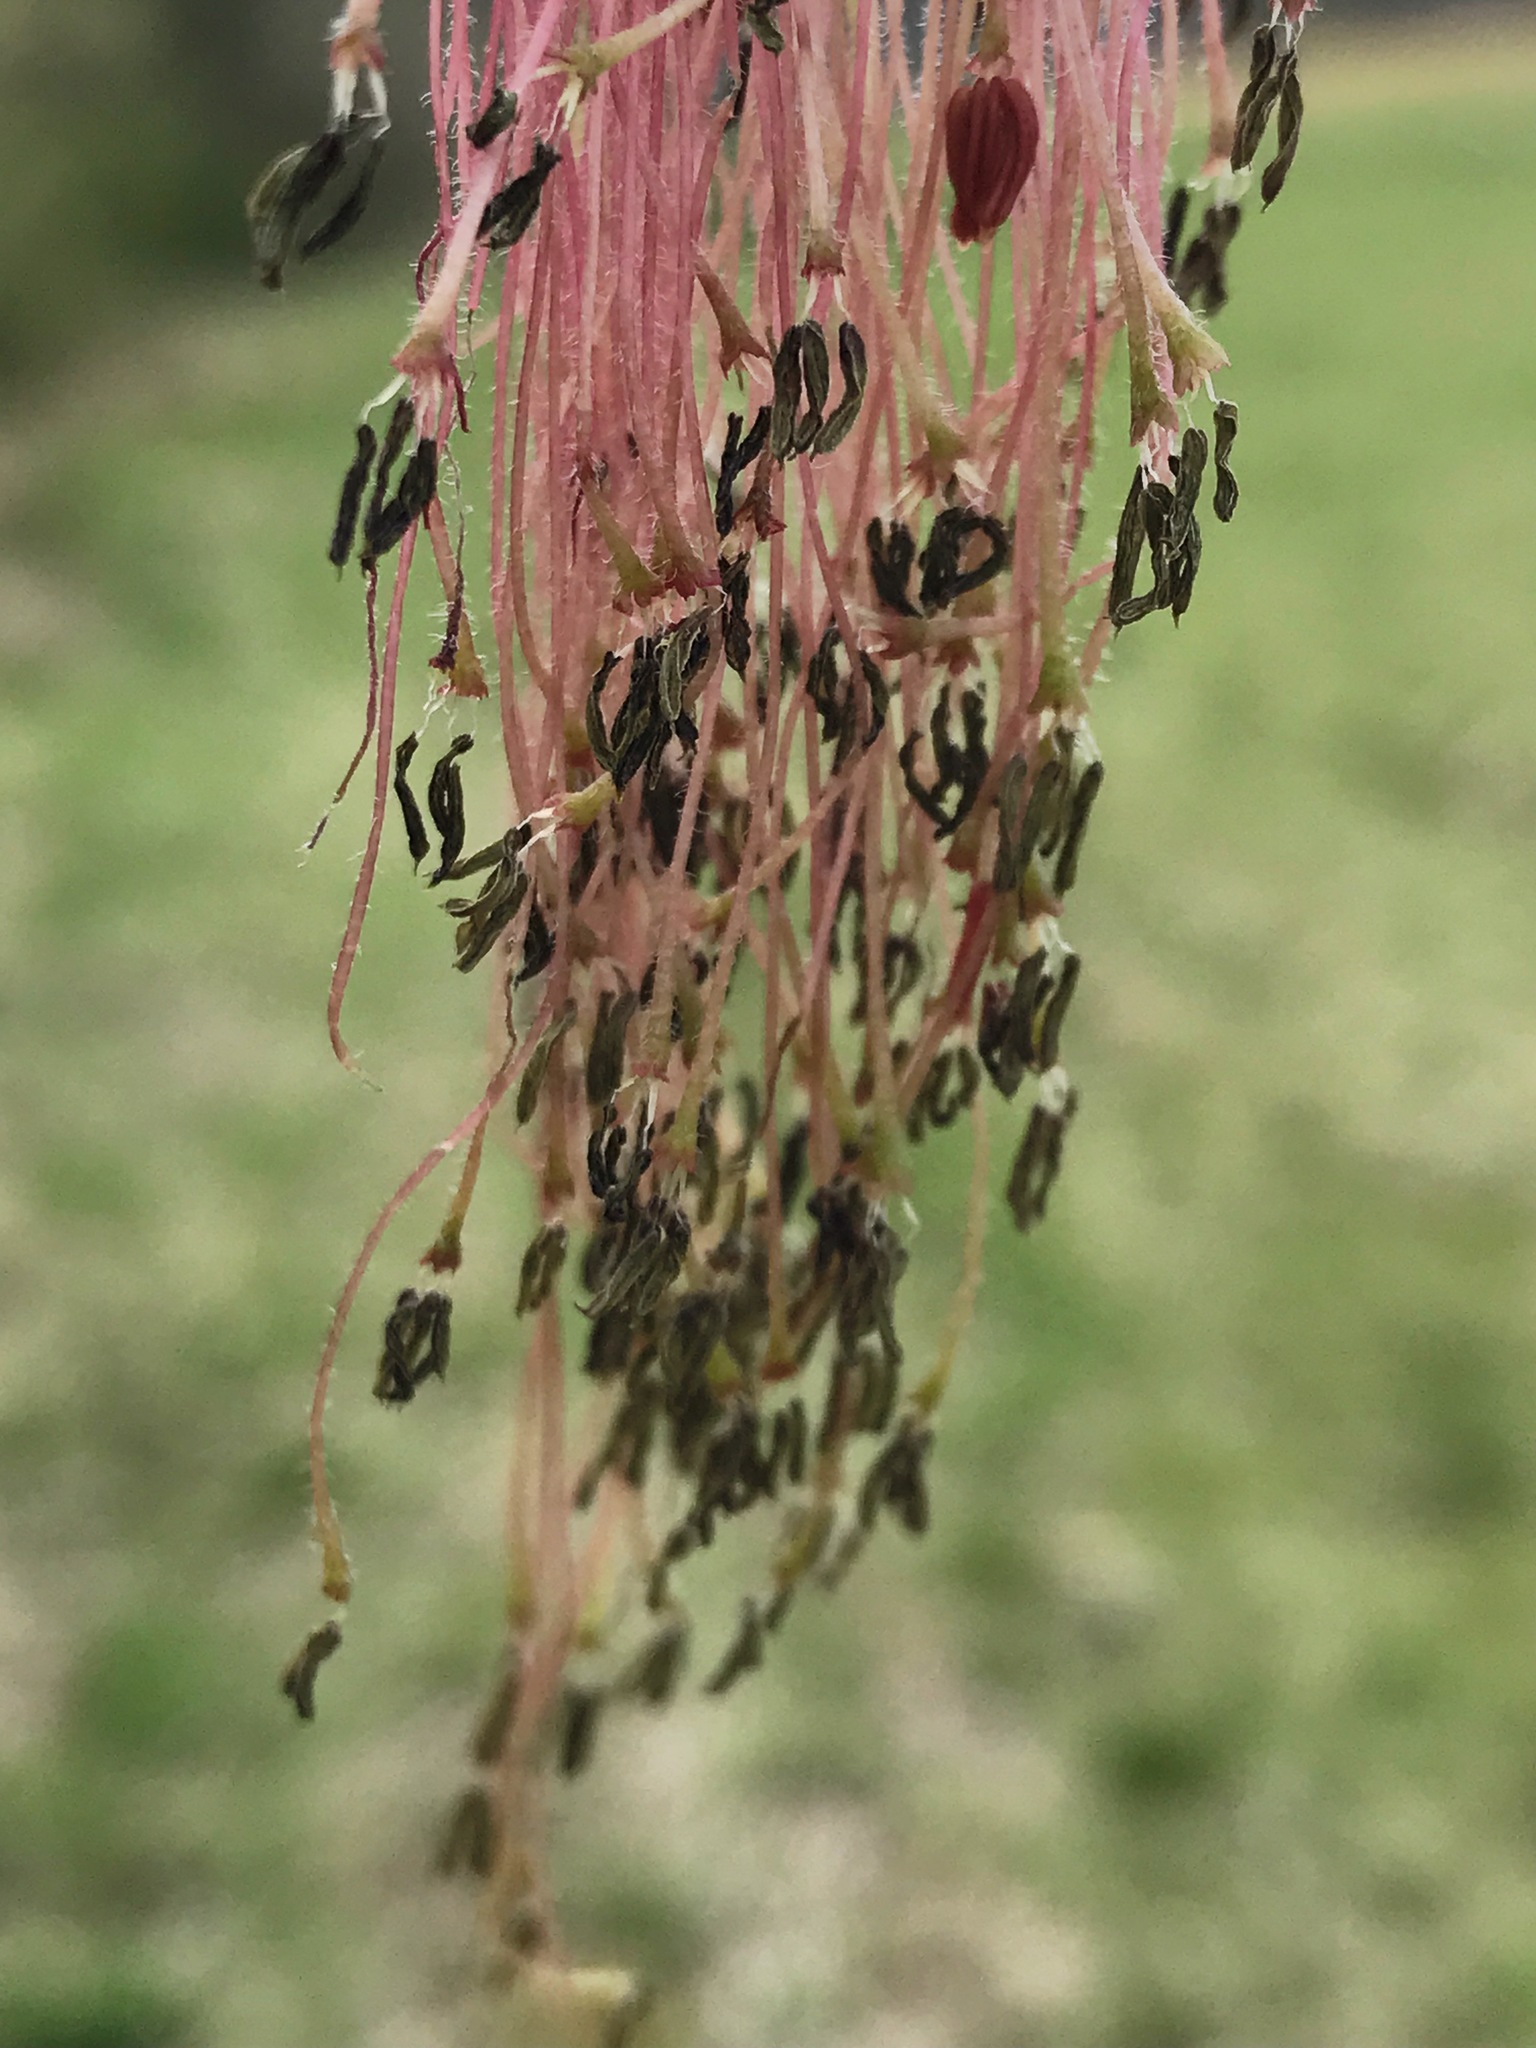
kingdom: Plantae
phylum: Tracheophyta
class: Magnoliopsida
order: Sapindales
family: Sapindaceae
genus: Acer
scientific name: Acer negundo
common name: Ashleaf maple
